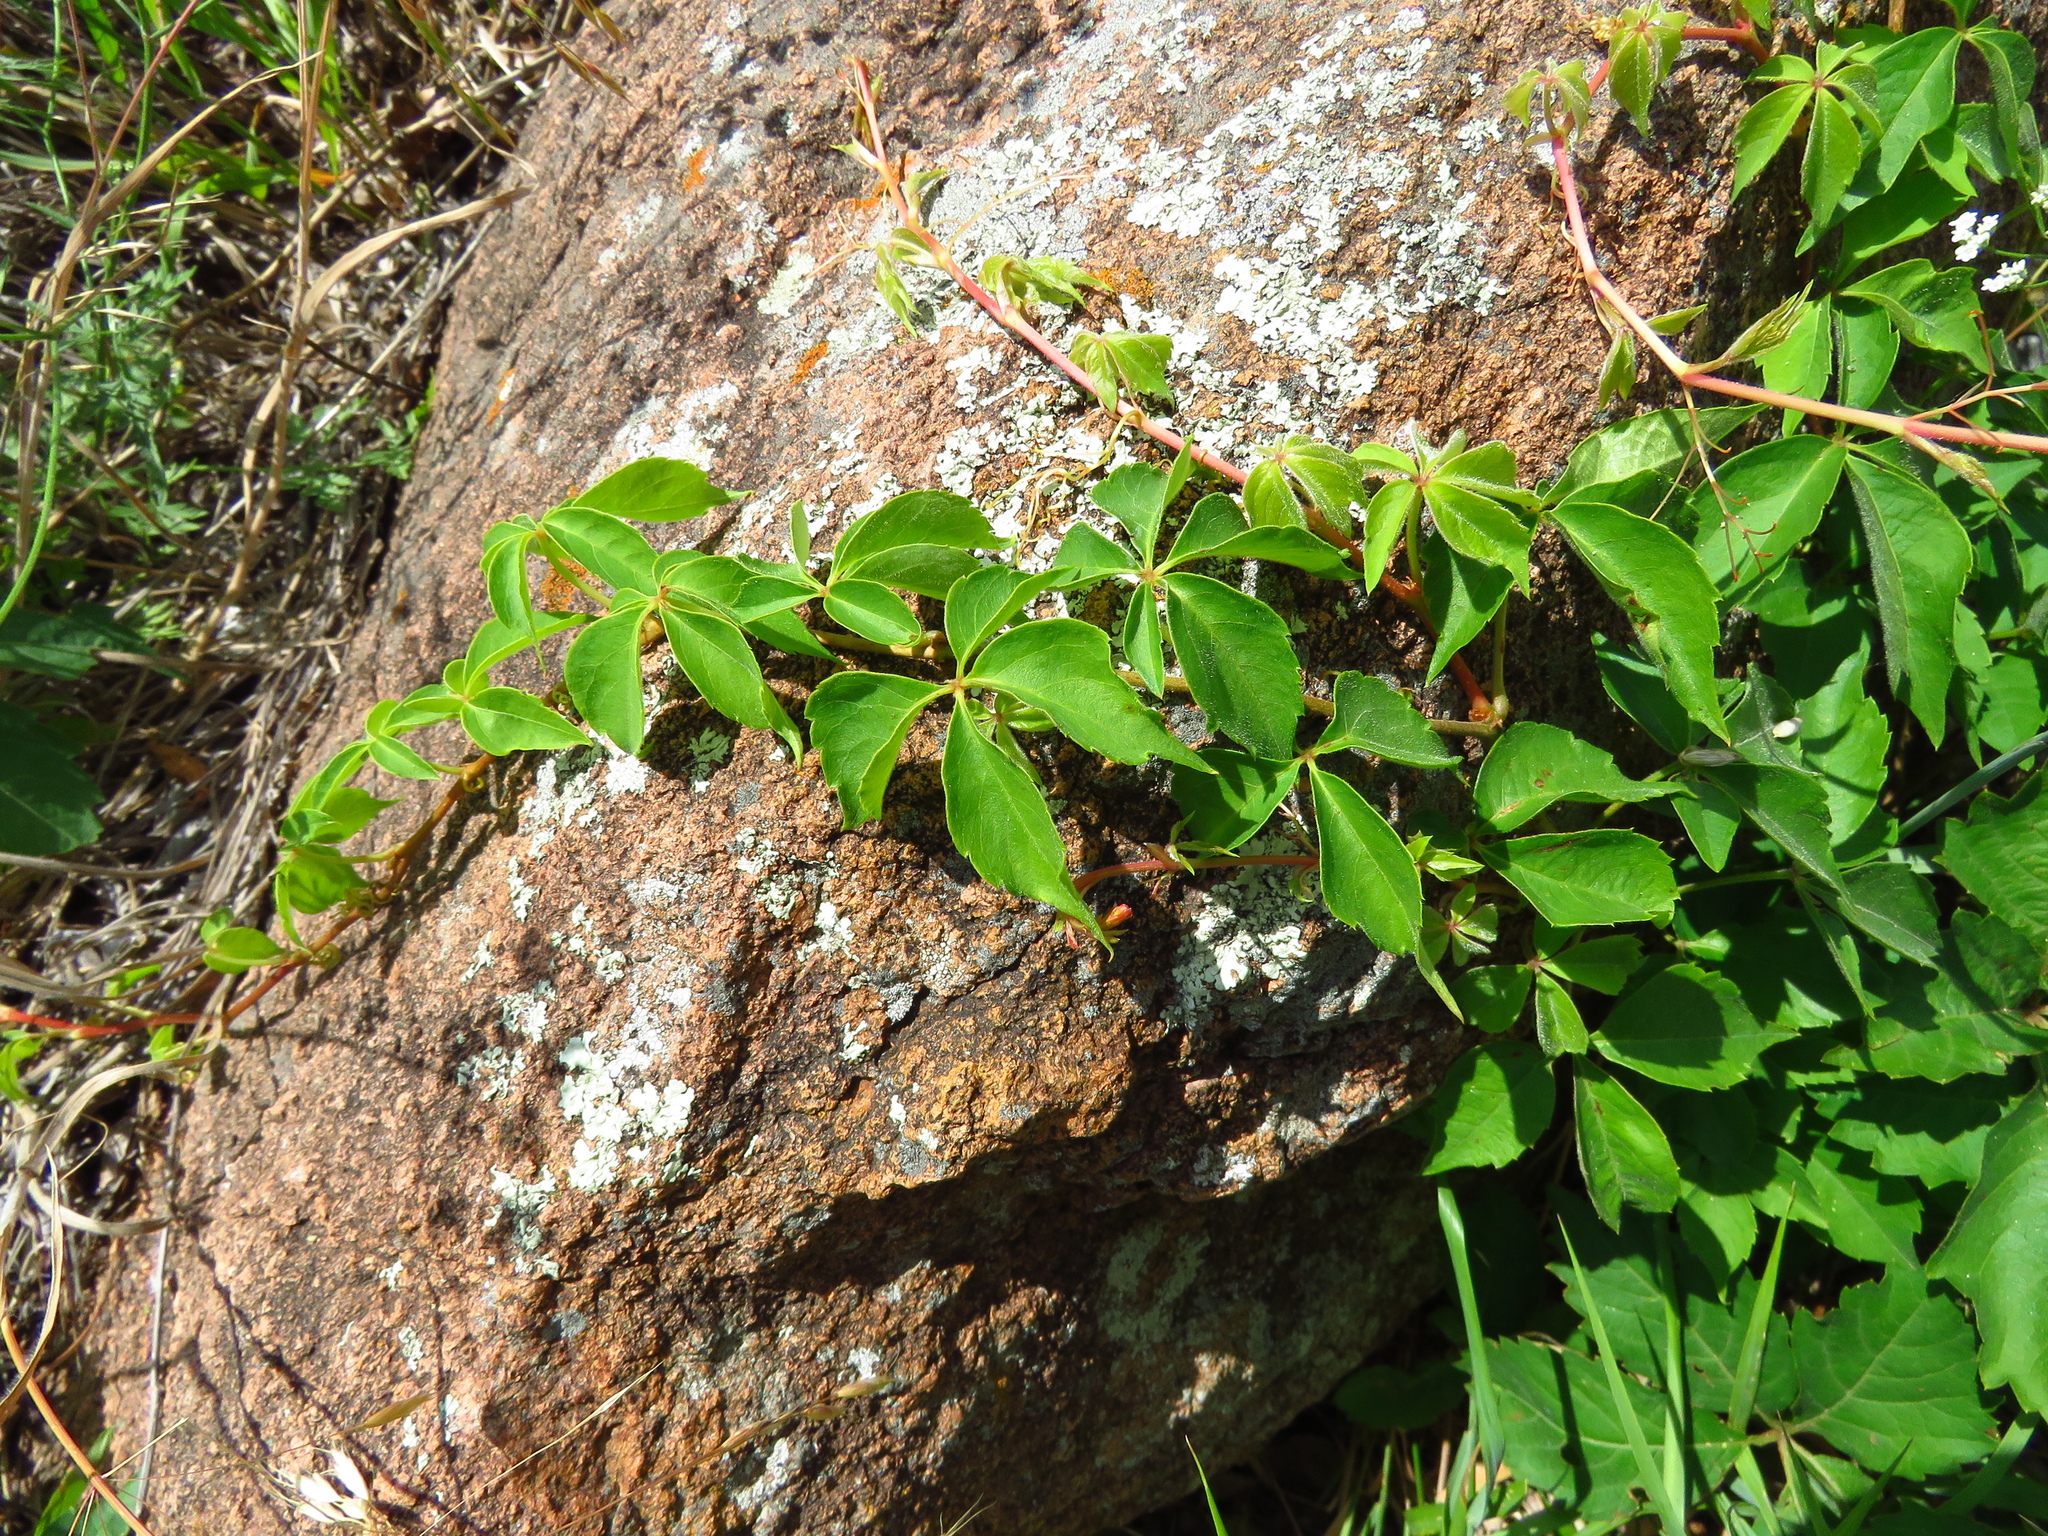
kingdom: Plantae
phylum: Tracheophyta
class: Magnoliopsida
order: Vitales
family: Vitaceae
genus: Parthenocissus
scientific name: Parthenocissus quinquefolia
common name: Virginia-creeper
